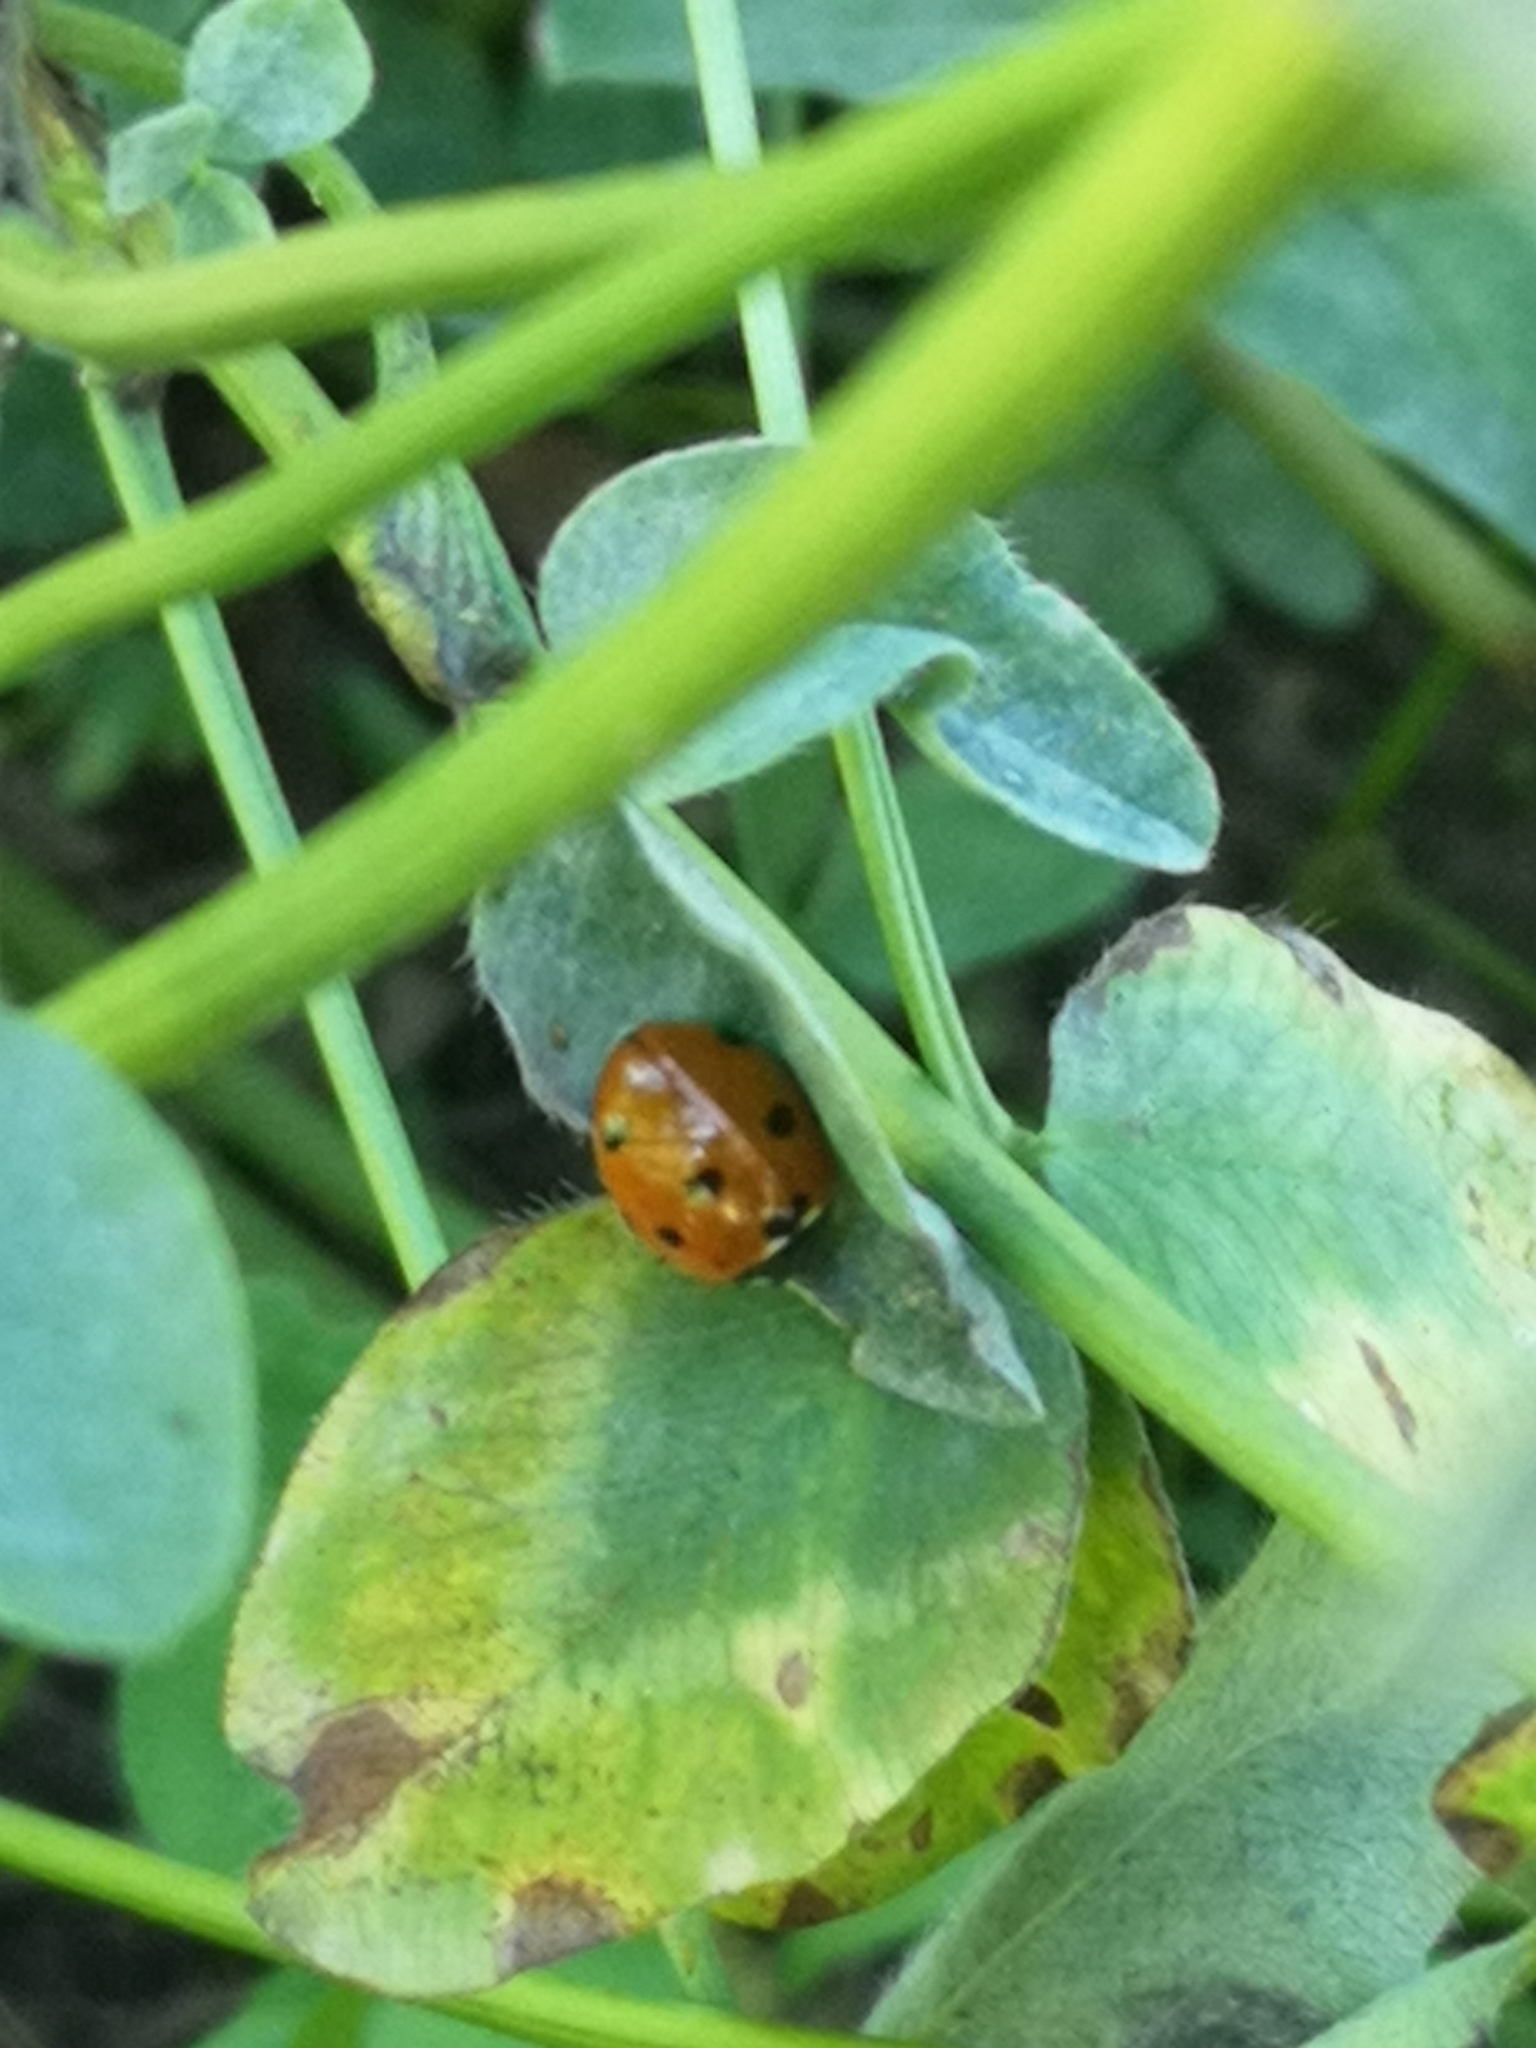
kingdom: Animalia
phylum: Arthropoda
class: Insecta
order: Coleoptera
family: Coccinellidae
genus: Coccinella
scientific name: Coccinella septempunctata
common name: Sevenspotted lady beetle
